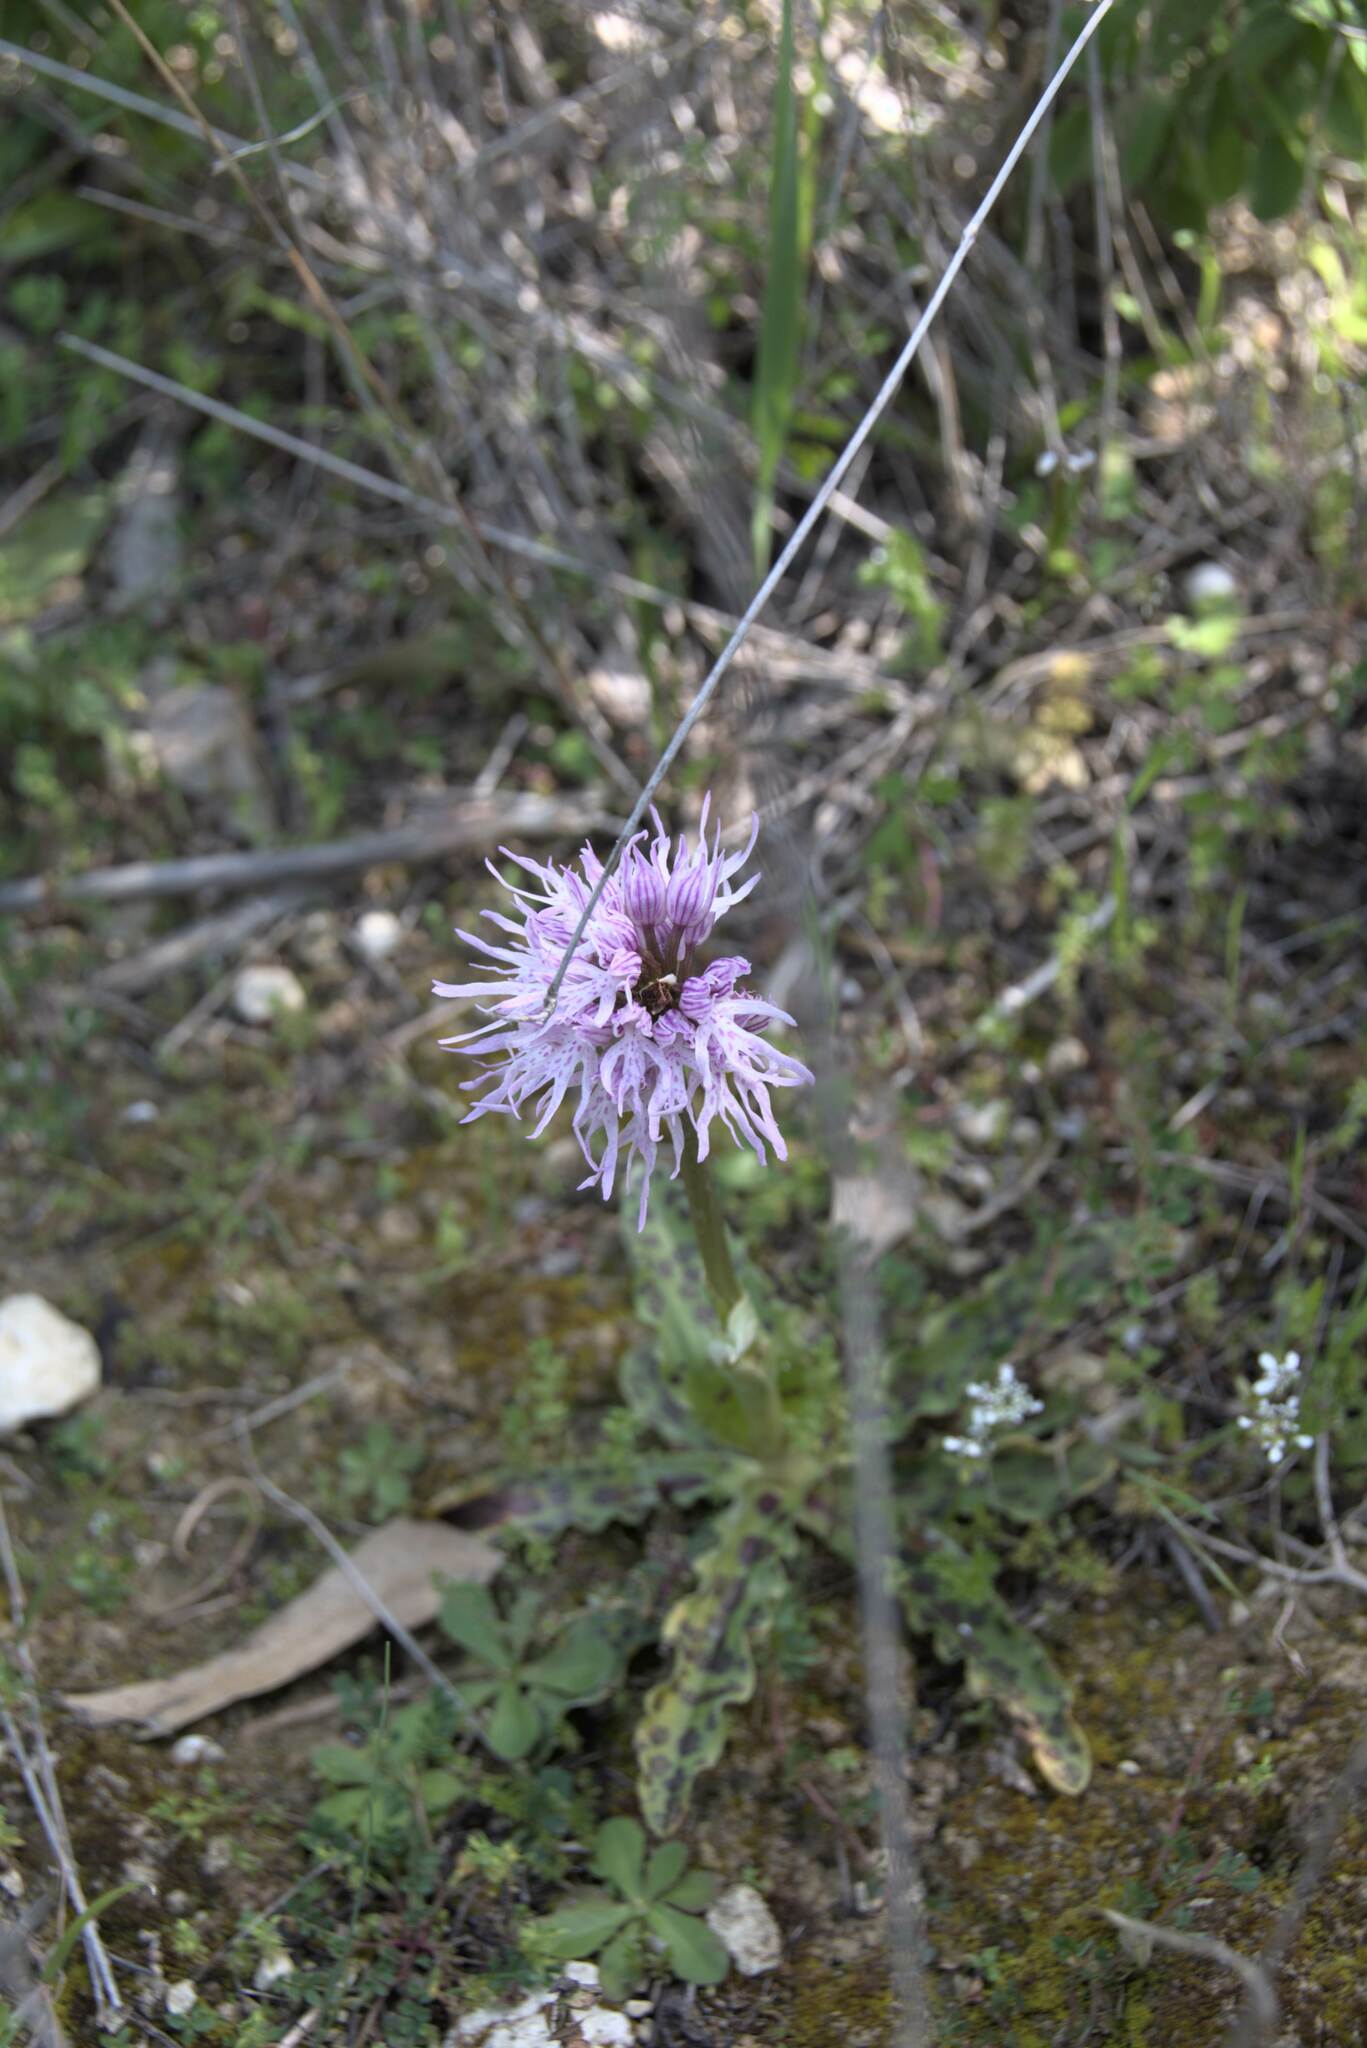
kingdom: Plantae
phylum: Tracheophyta
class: Liliopsida
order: Asparagales
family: Orchidaceae
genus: Orchis
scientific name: Orchis italica
